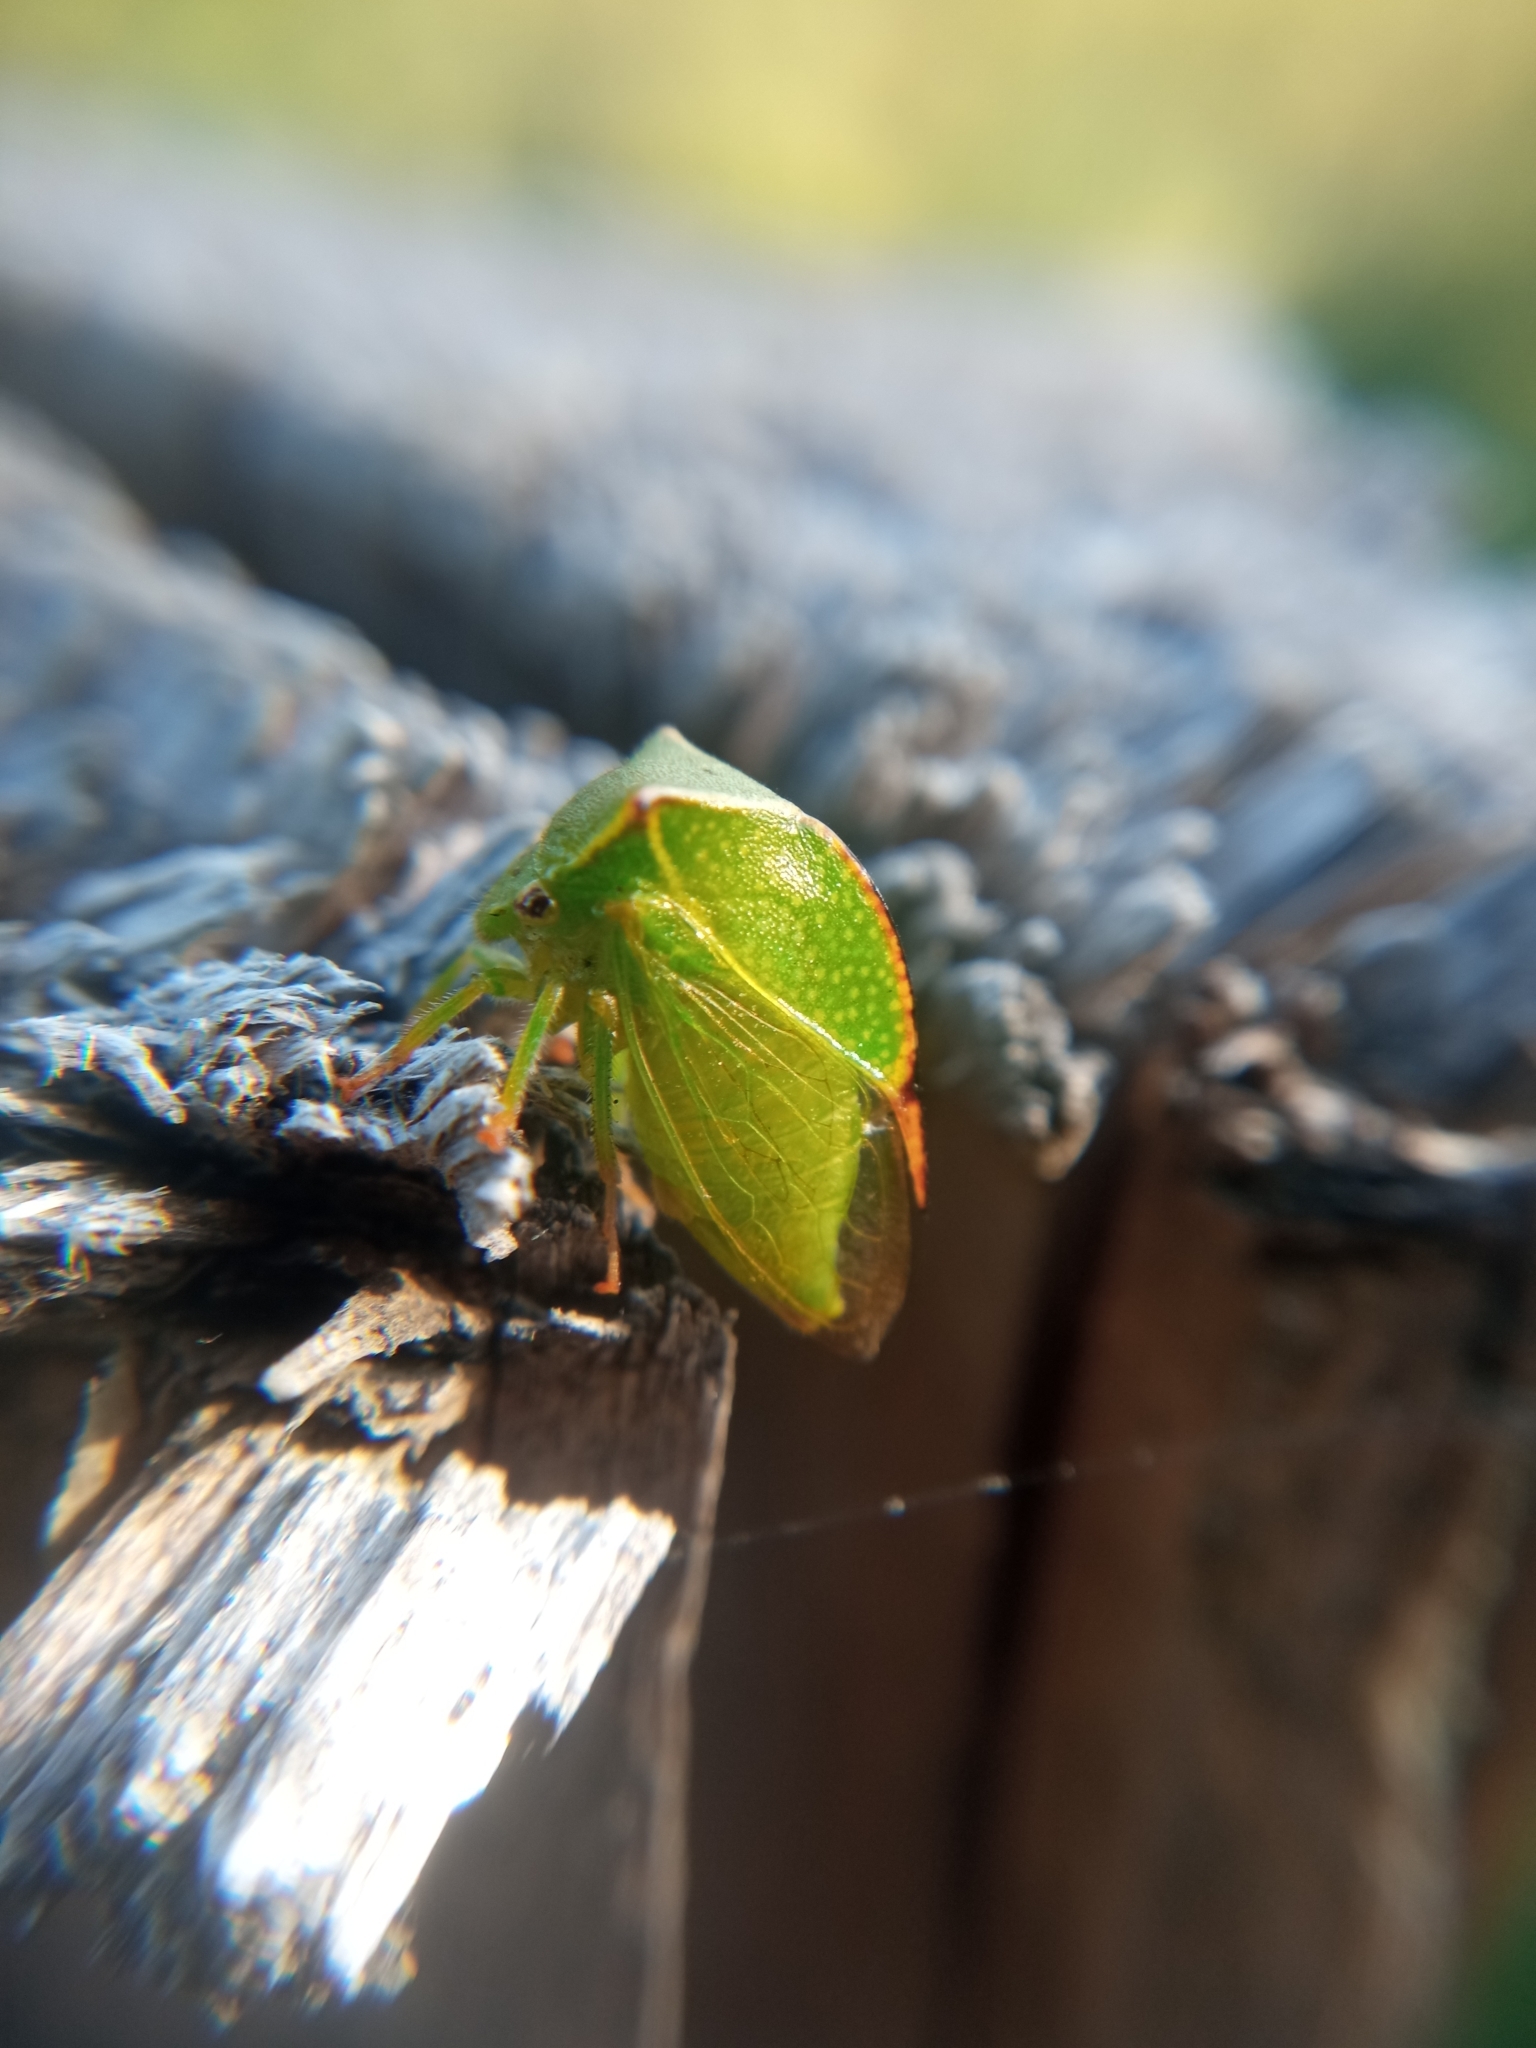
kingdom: Animalia
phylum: Arthropoda
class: Insecta
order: Hemiptera
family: Membracidae
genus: Stictocephala
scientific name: Stictocephala bisonia
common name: American buffalo treehopper
